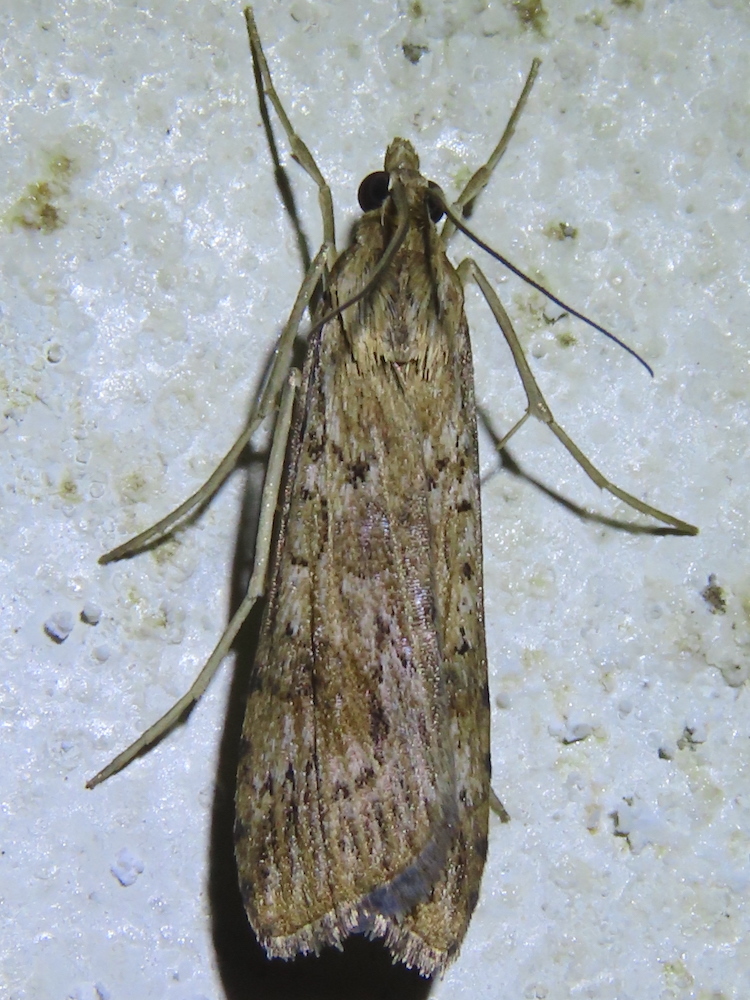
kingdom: Animalia
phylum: Arthropoda
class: Insecta
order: Lepidoptera
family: Crambidae
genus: Nomophila
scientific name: Nomophila nearctica
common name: American rush veneer
